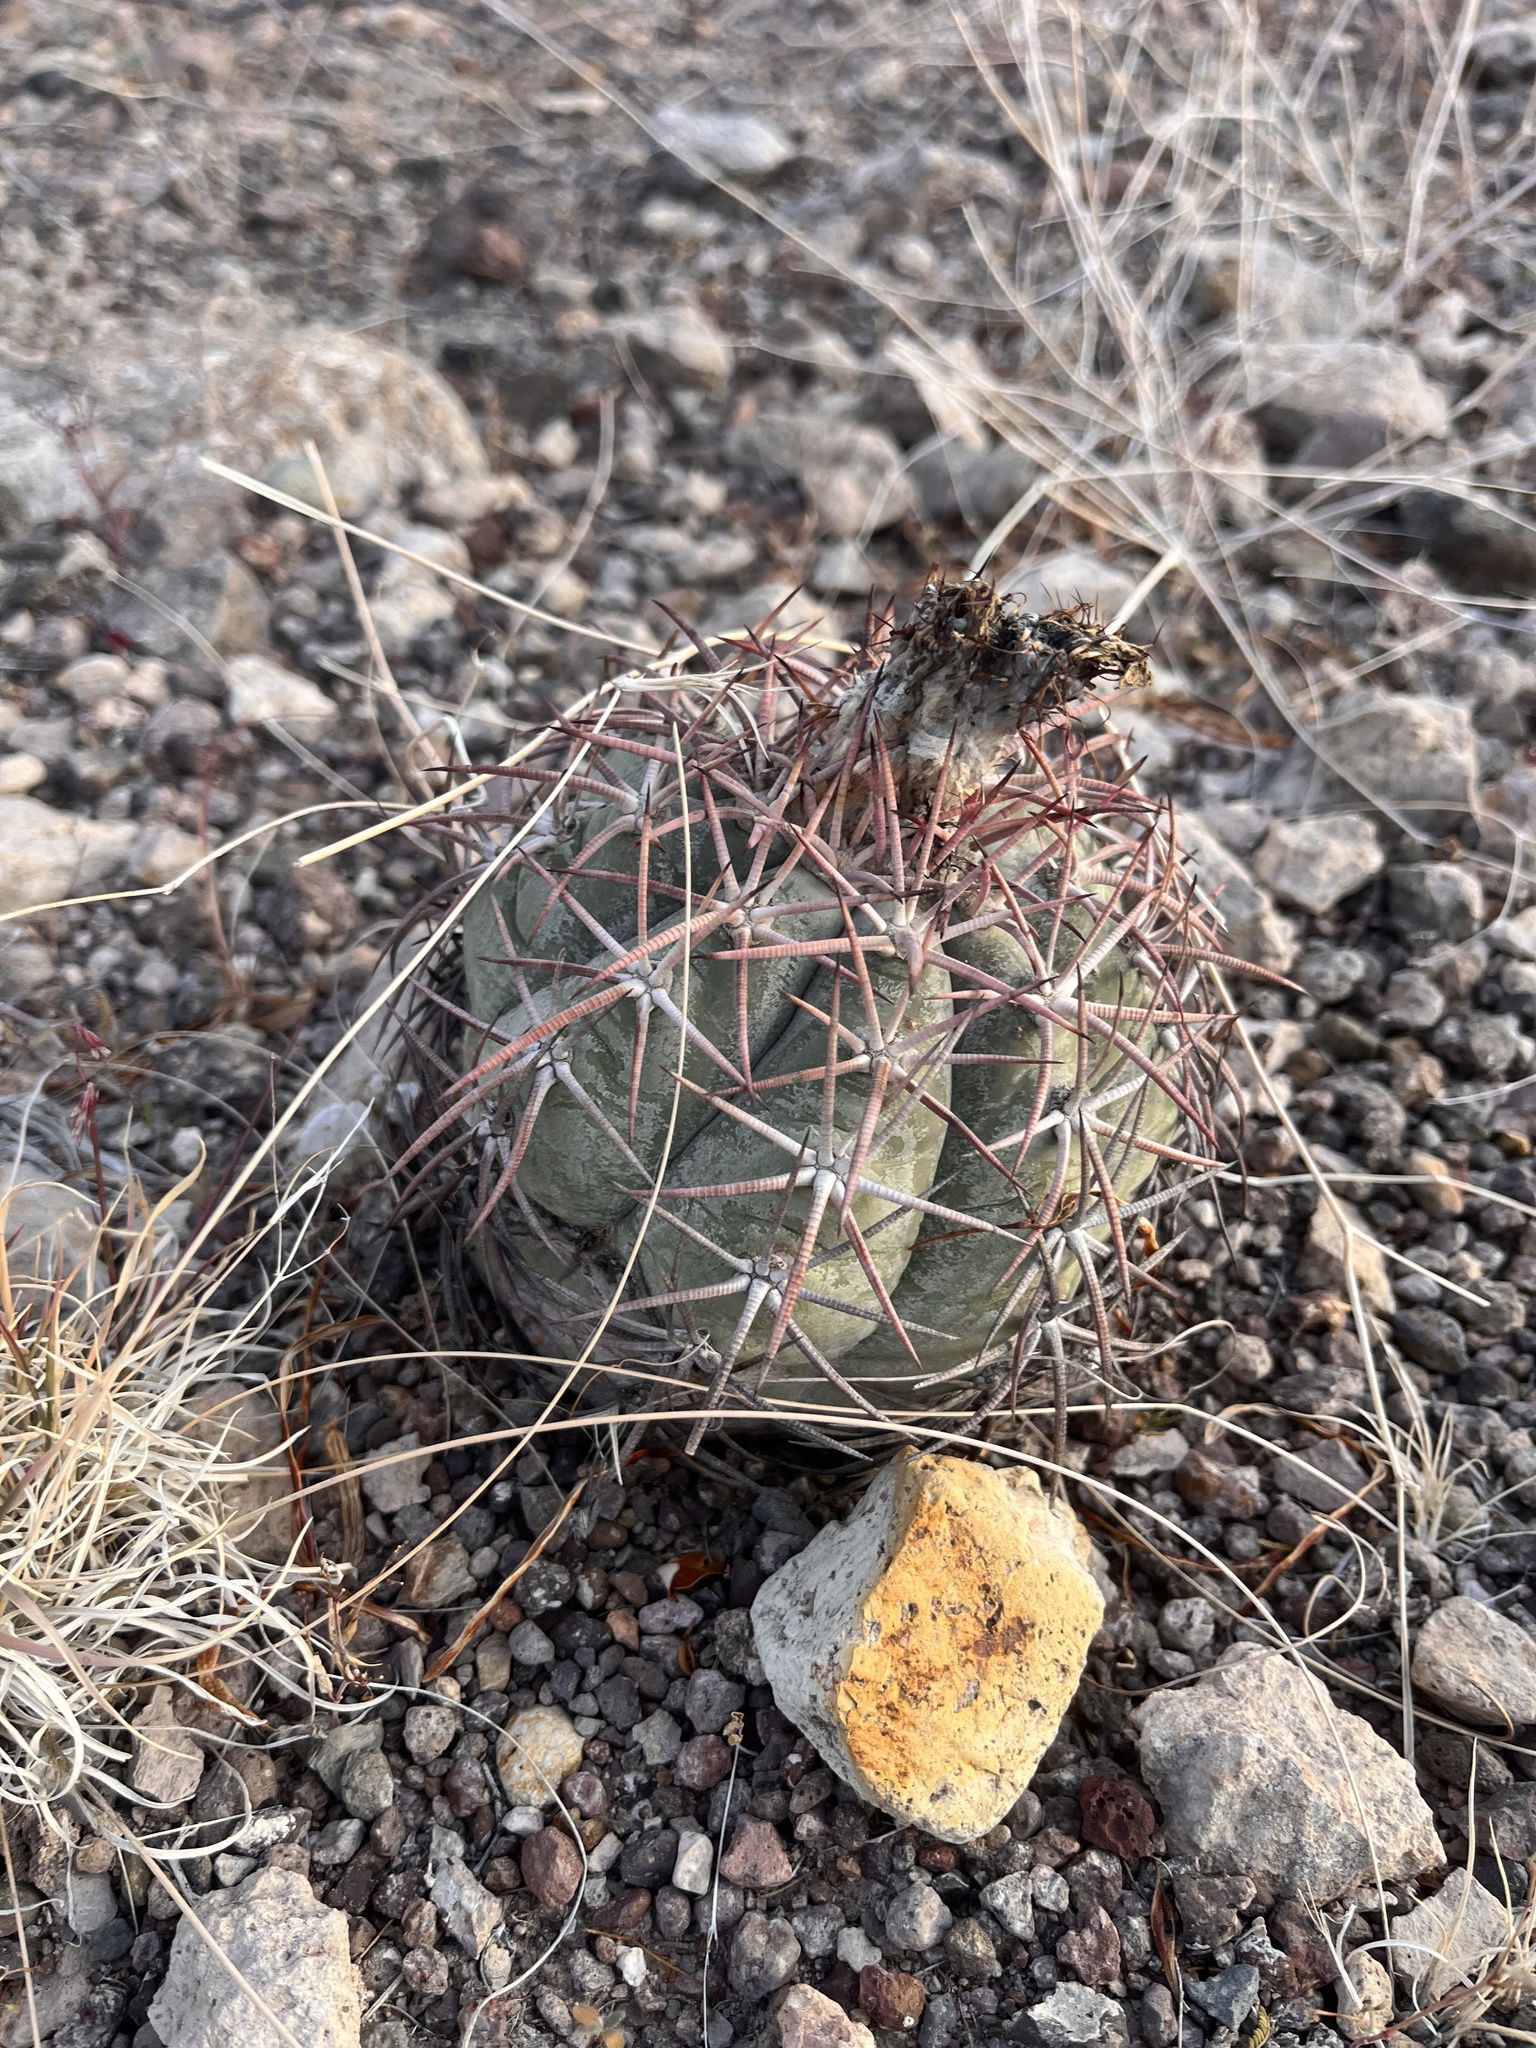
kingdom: Plantae
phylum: Tracheophyta
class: Magnoliopsida
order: Caryophyllales
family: Cactaceae
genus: Echinocactus
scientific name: Echinocactus horizonthalonius
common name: Devilshead
